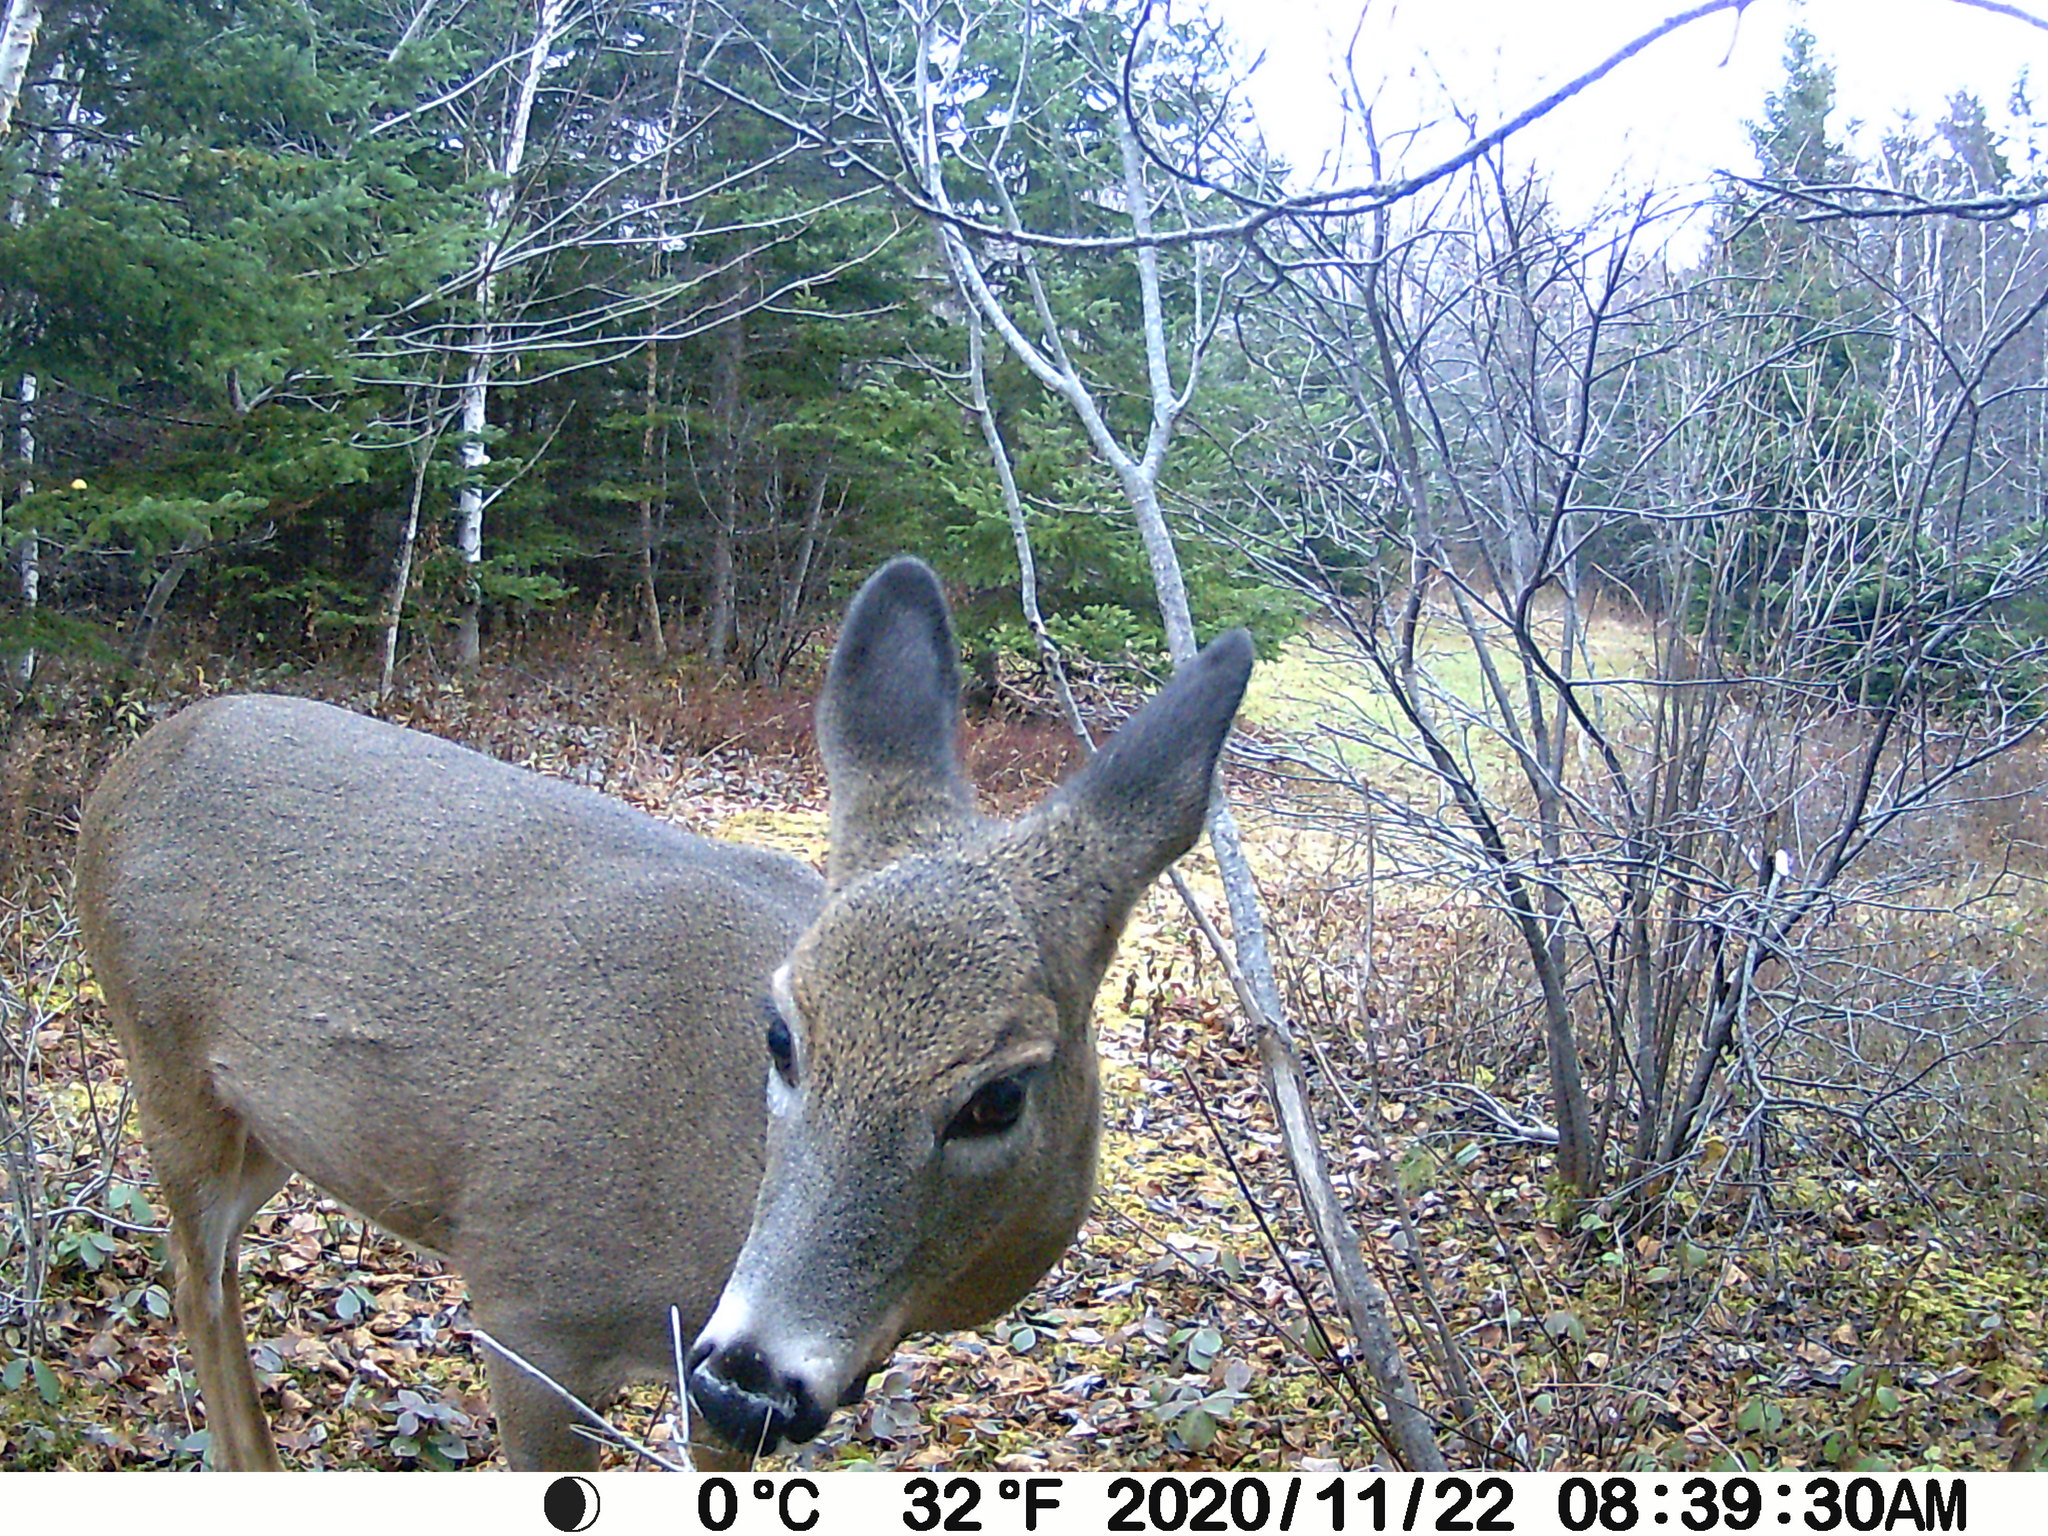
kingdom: Animalia
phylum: Chordata
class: Mammalia
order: Artiodactyla
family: Cervidae
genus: Odocoileus
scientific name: Odocoileus virginianus
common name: White-tailed deer
